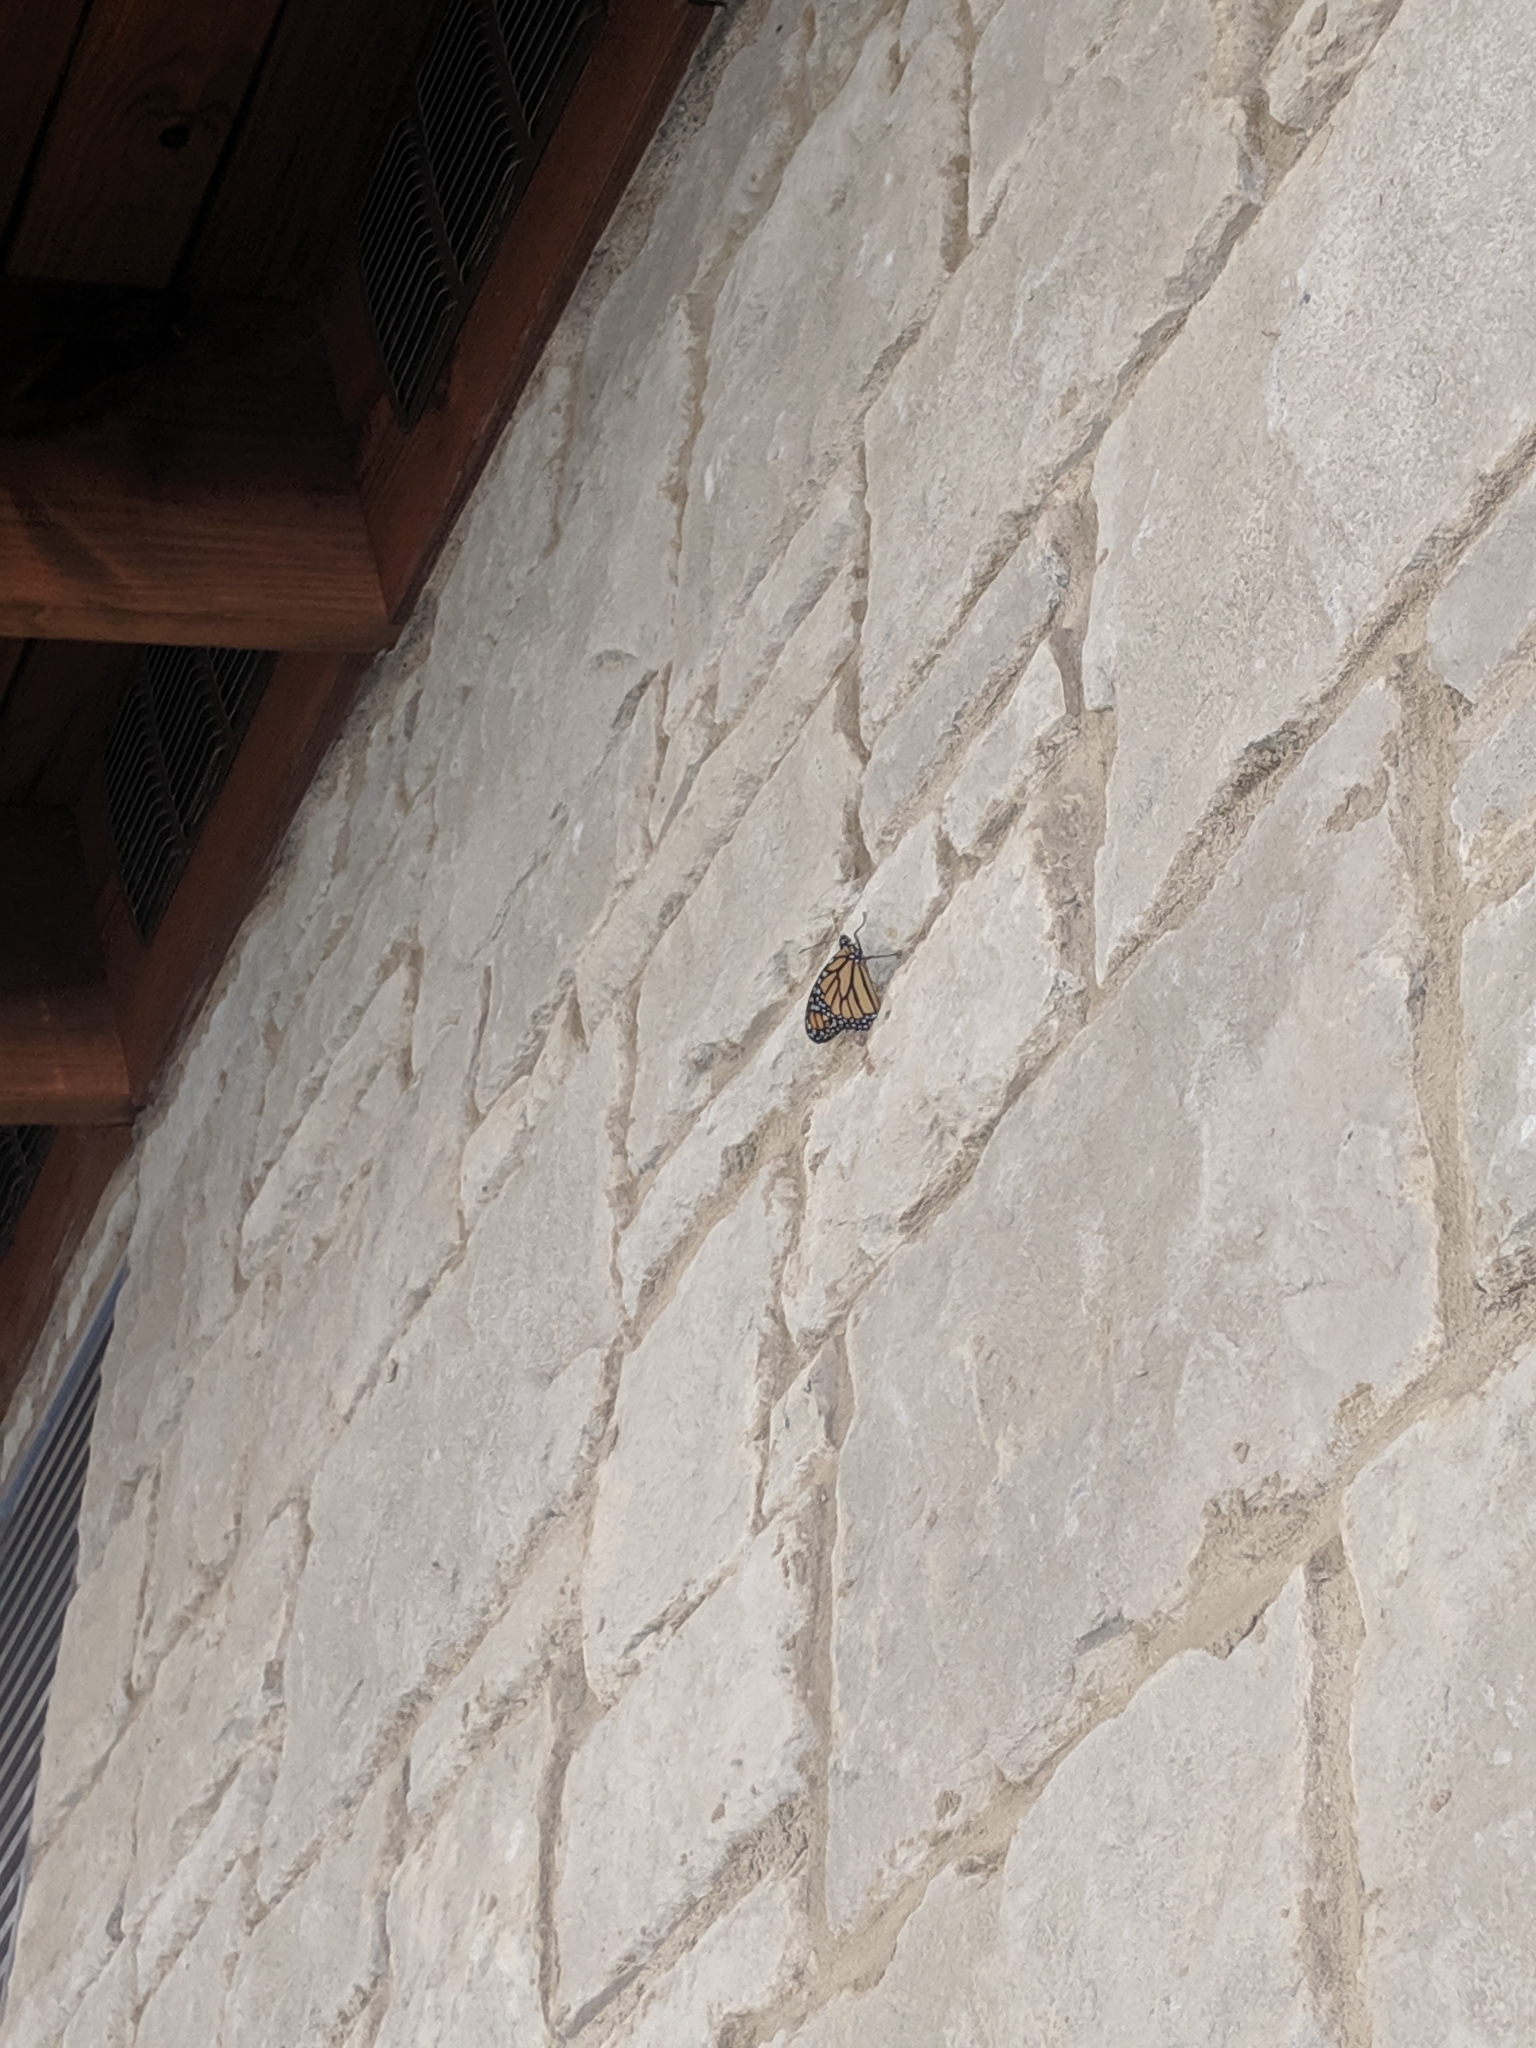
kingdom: Animalia
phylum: Arthropoda
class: Insecta
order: Lepidoptera
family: Nymphalidae
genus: Danaus
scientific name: Danaus plexippus
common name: Monarch
